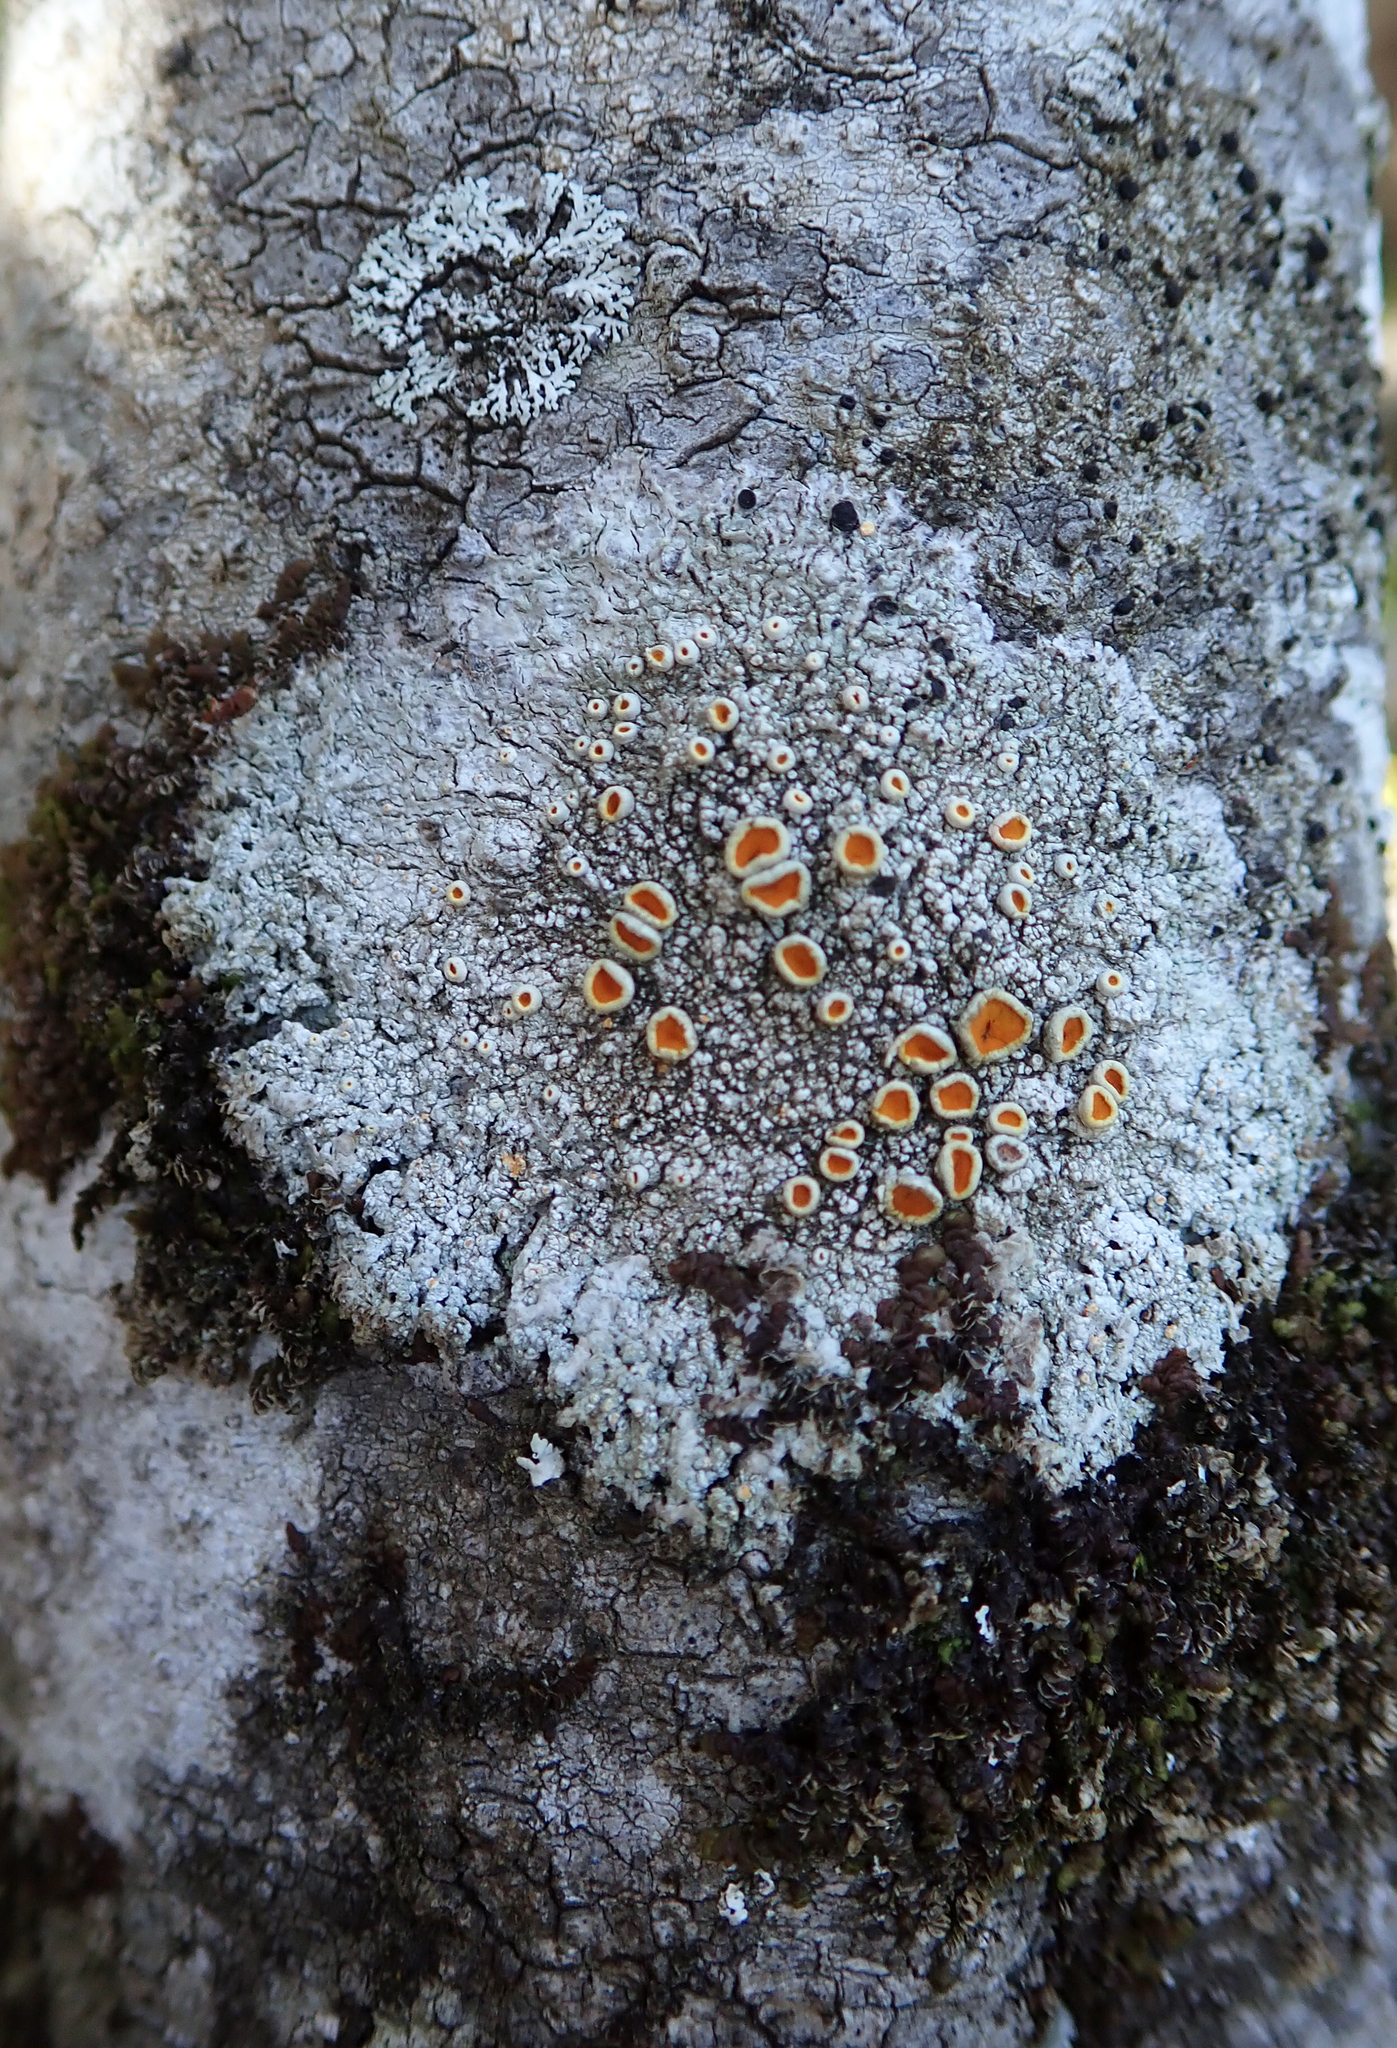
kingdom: Fungi
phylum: Ascomycota
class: Lecanoromycetes
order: Teloschistales
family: Brigantiaeaceae
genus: Brigantiaea
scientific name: Brigantiaea chrysosticta
